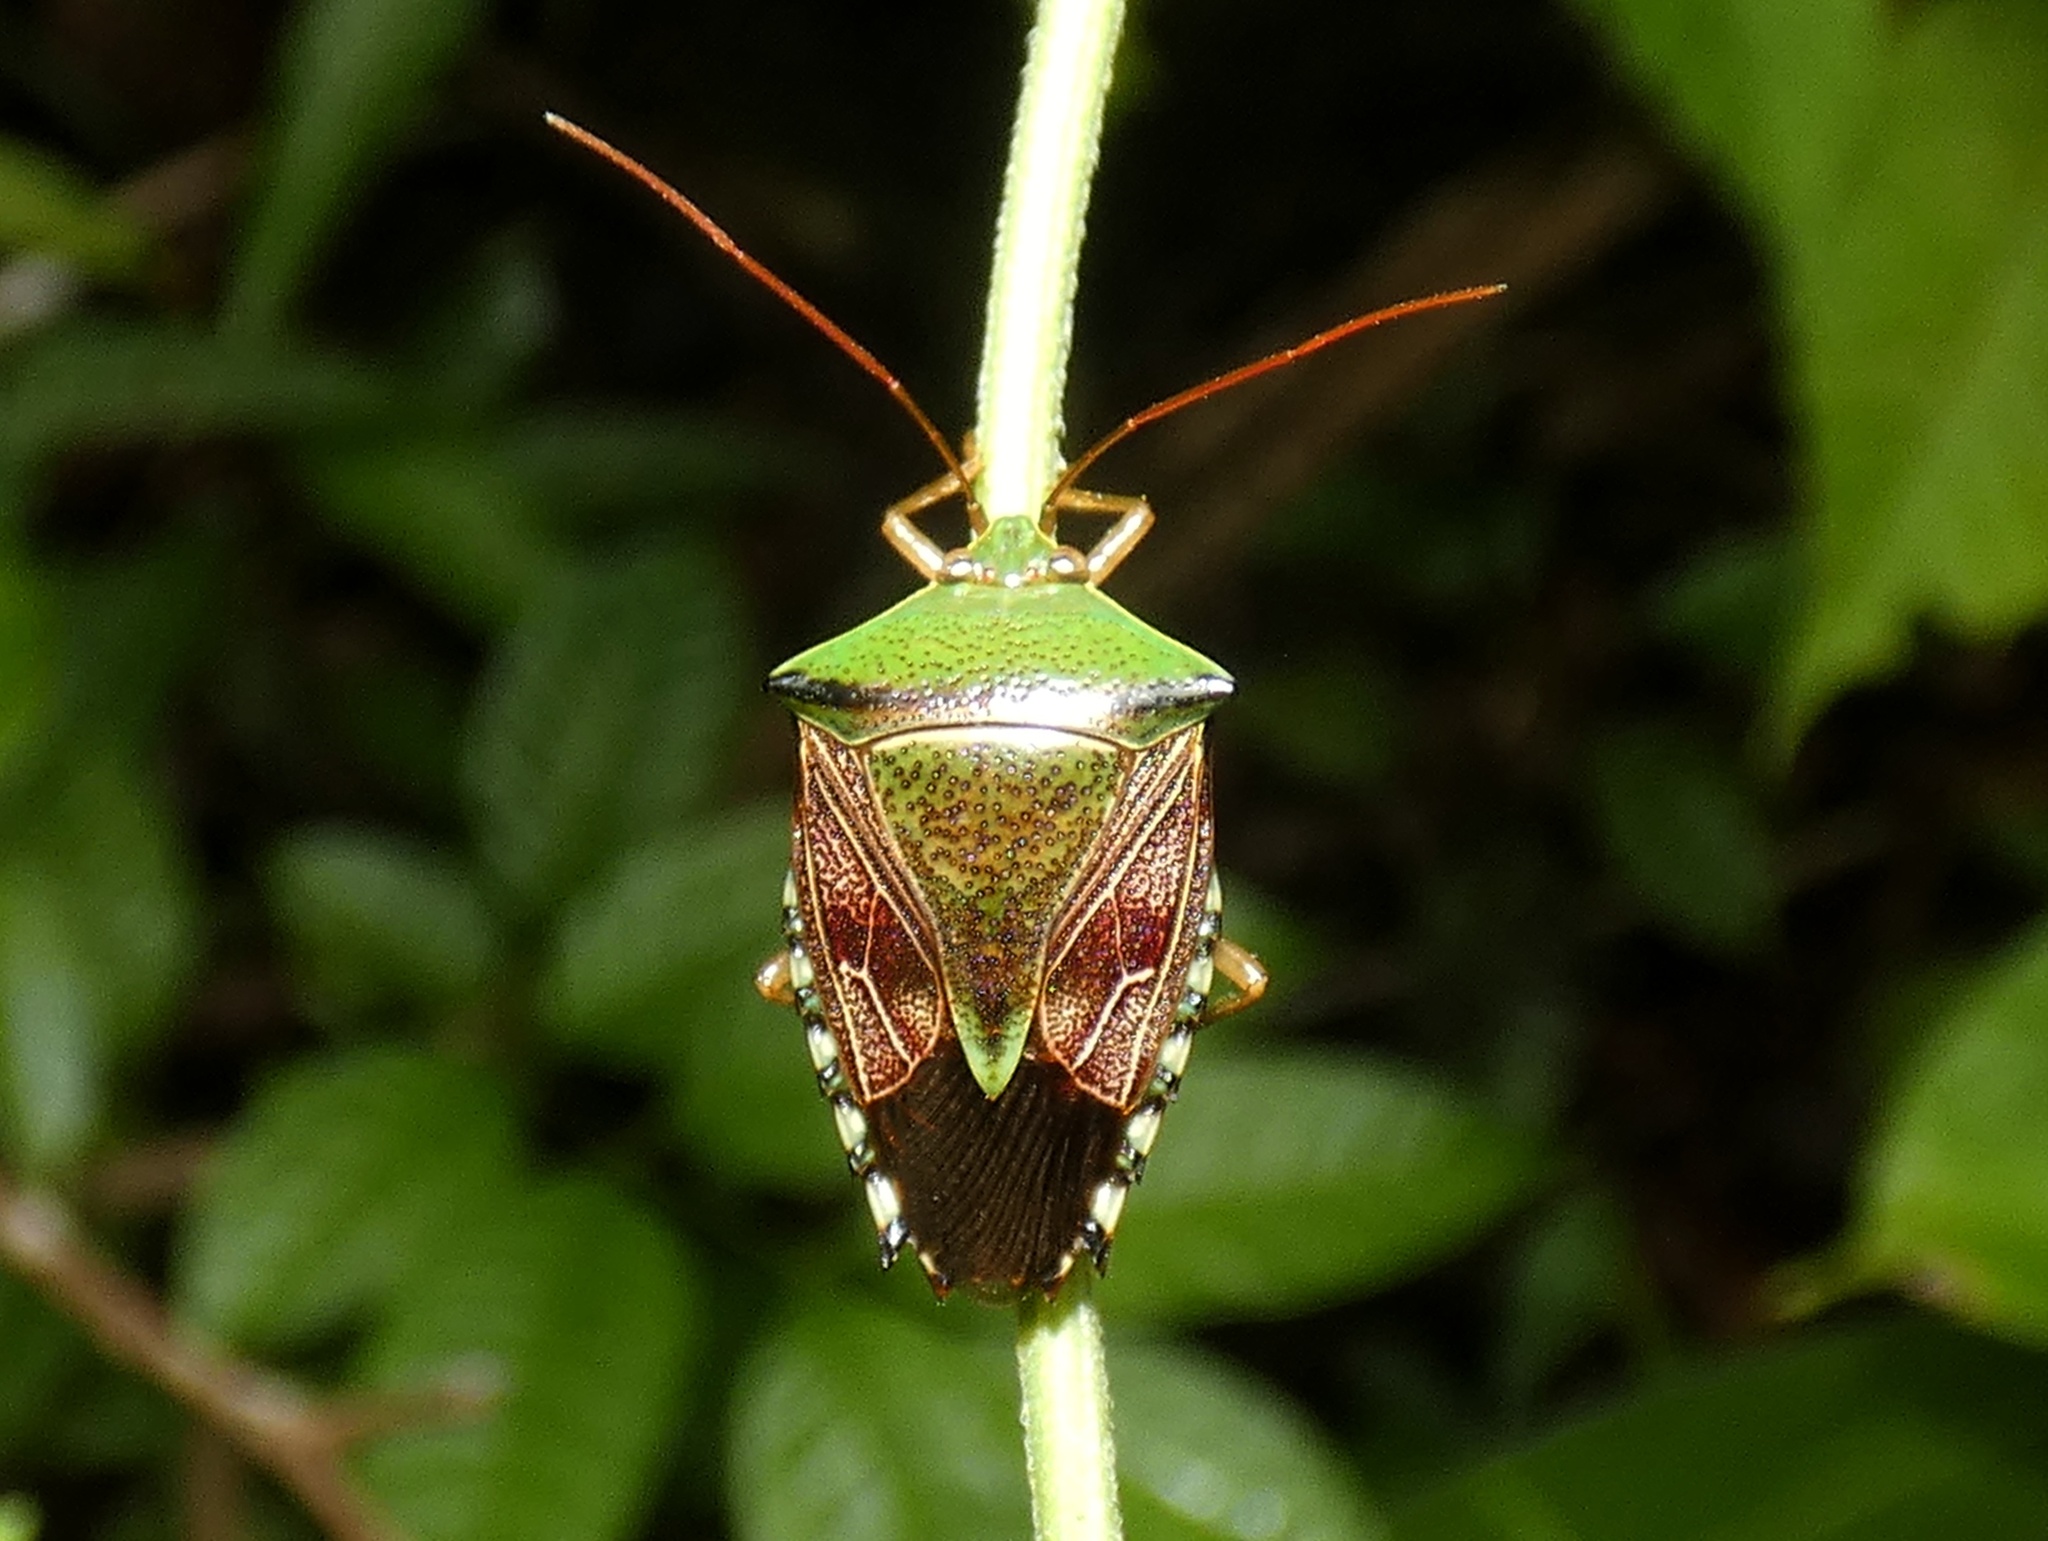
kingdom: Animalia
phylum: Arthropoda
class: Insecta
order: Hemiptera
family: Pentatomidae
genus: Hypoxys
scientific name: Hypoxys eburatulus
